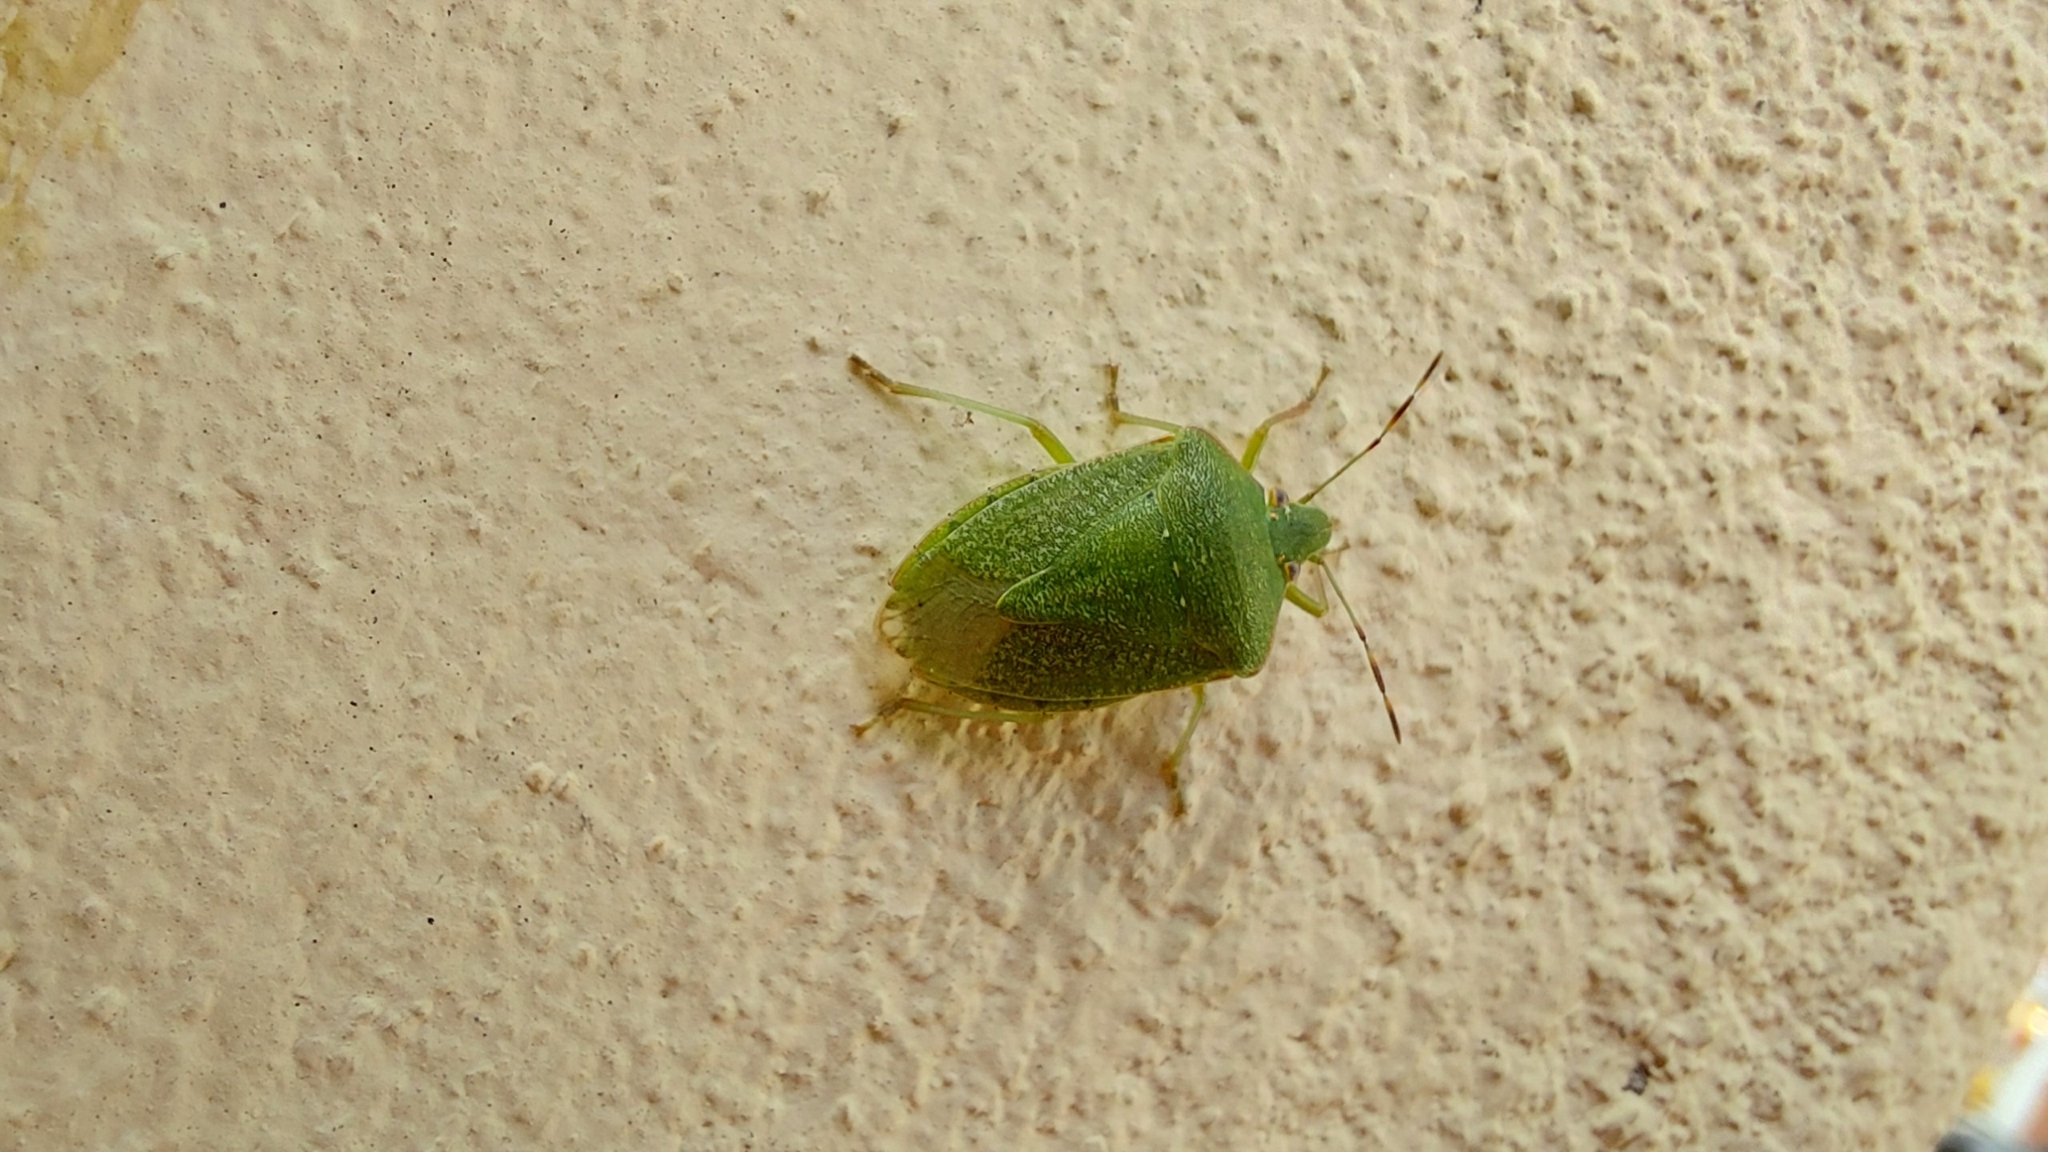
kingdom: Animalia
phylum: Arthropoda
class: Insecta
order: Hemiptera
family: Pentatomidae
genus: Nezara
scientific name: Nezara viridula
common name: Southern green stink bug
